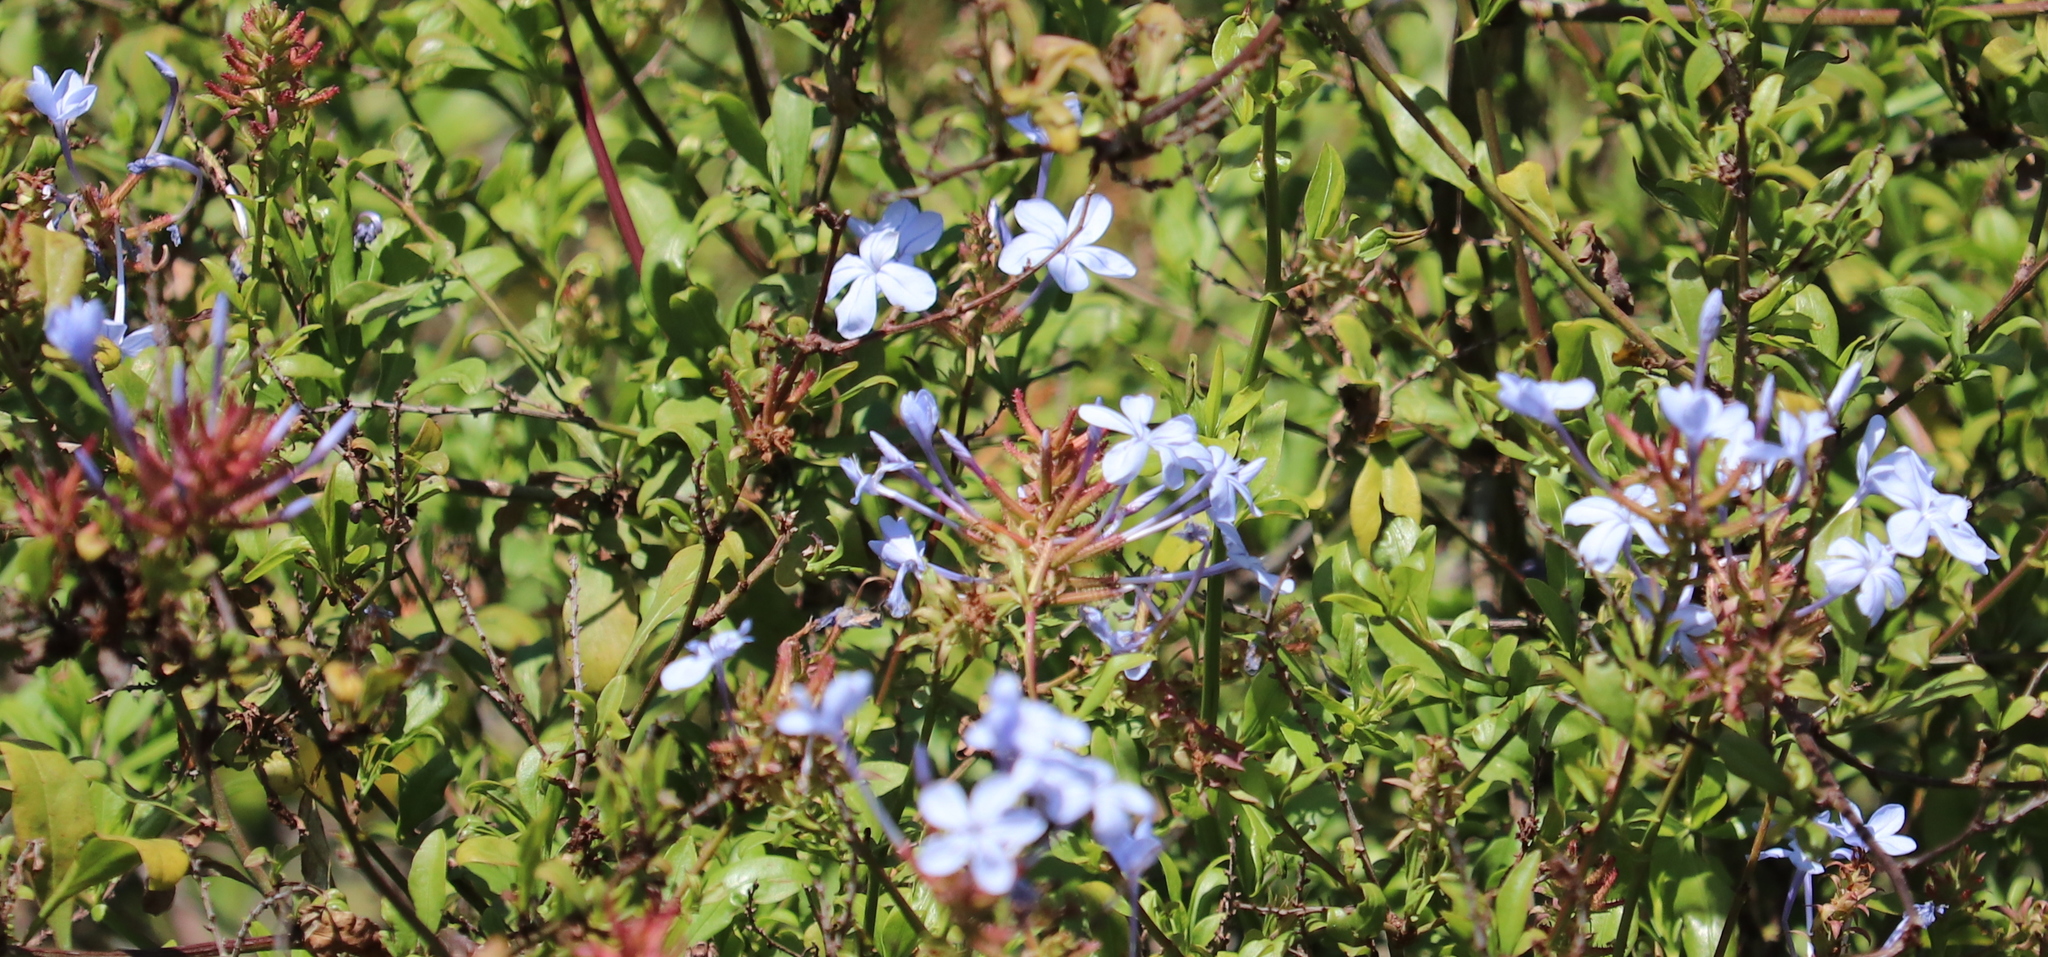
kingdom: Plantae
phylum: Tracheophyta
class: Magnoliopsida
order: Caryophyllales
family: Plumbaginaceae
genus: Plumbago
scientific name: Plumbago auriculata
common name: Cape leadwort
